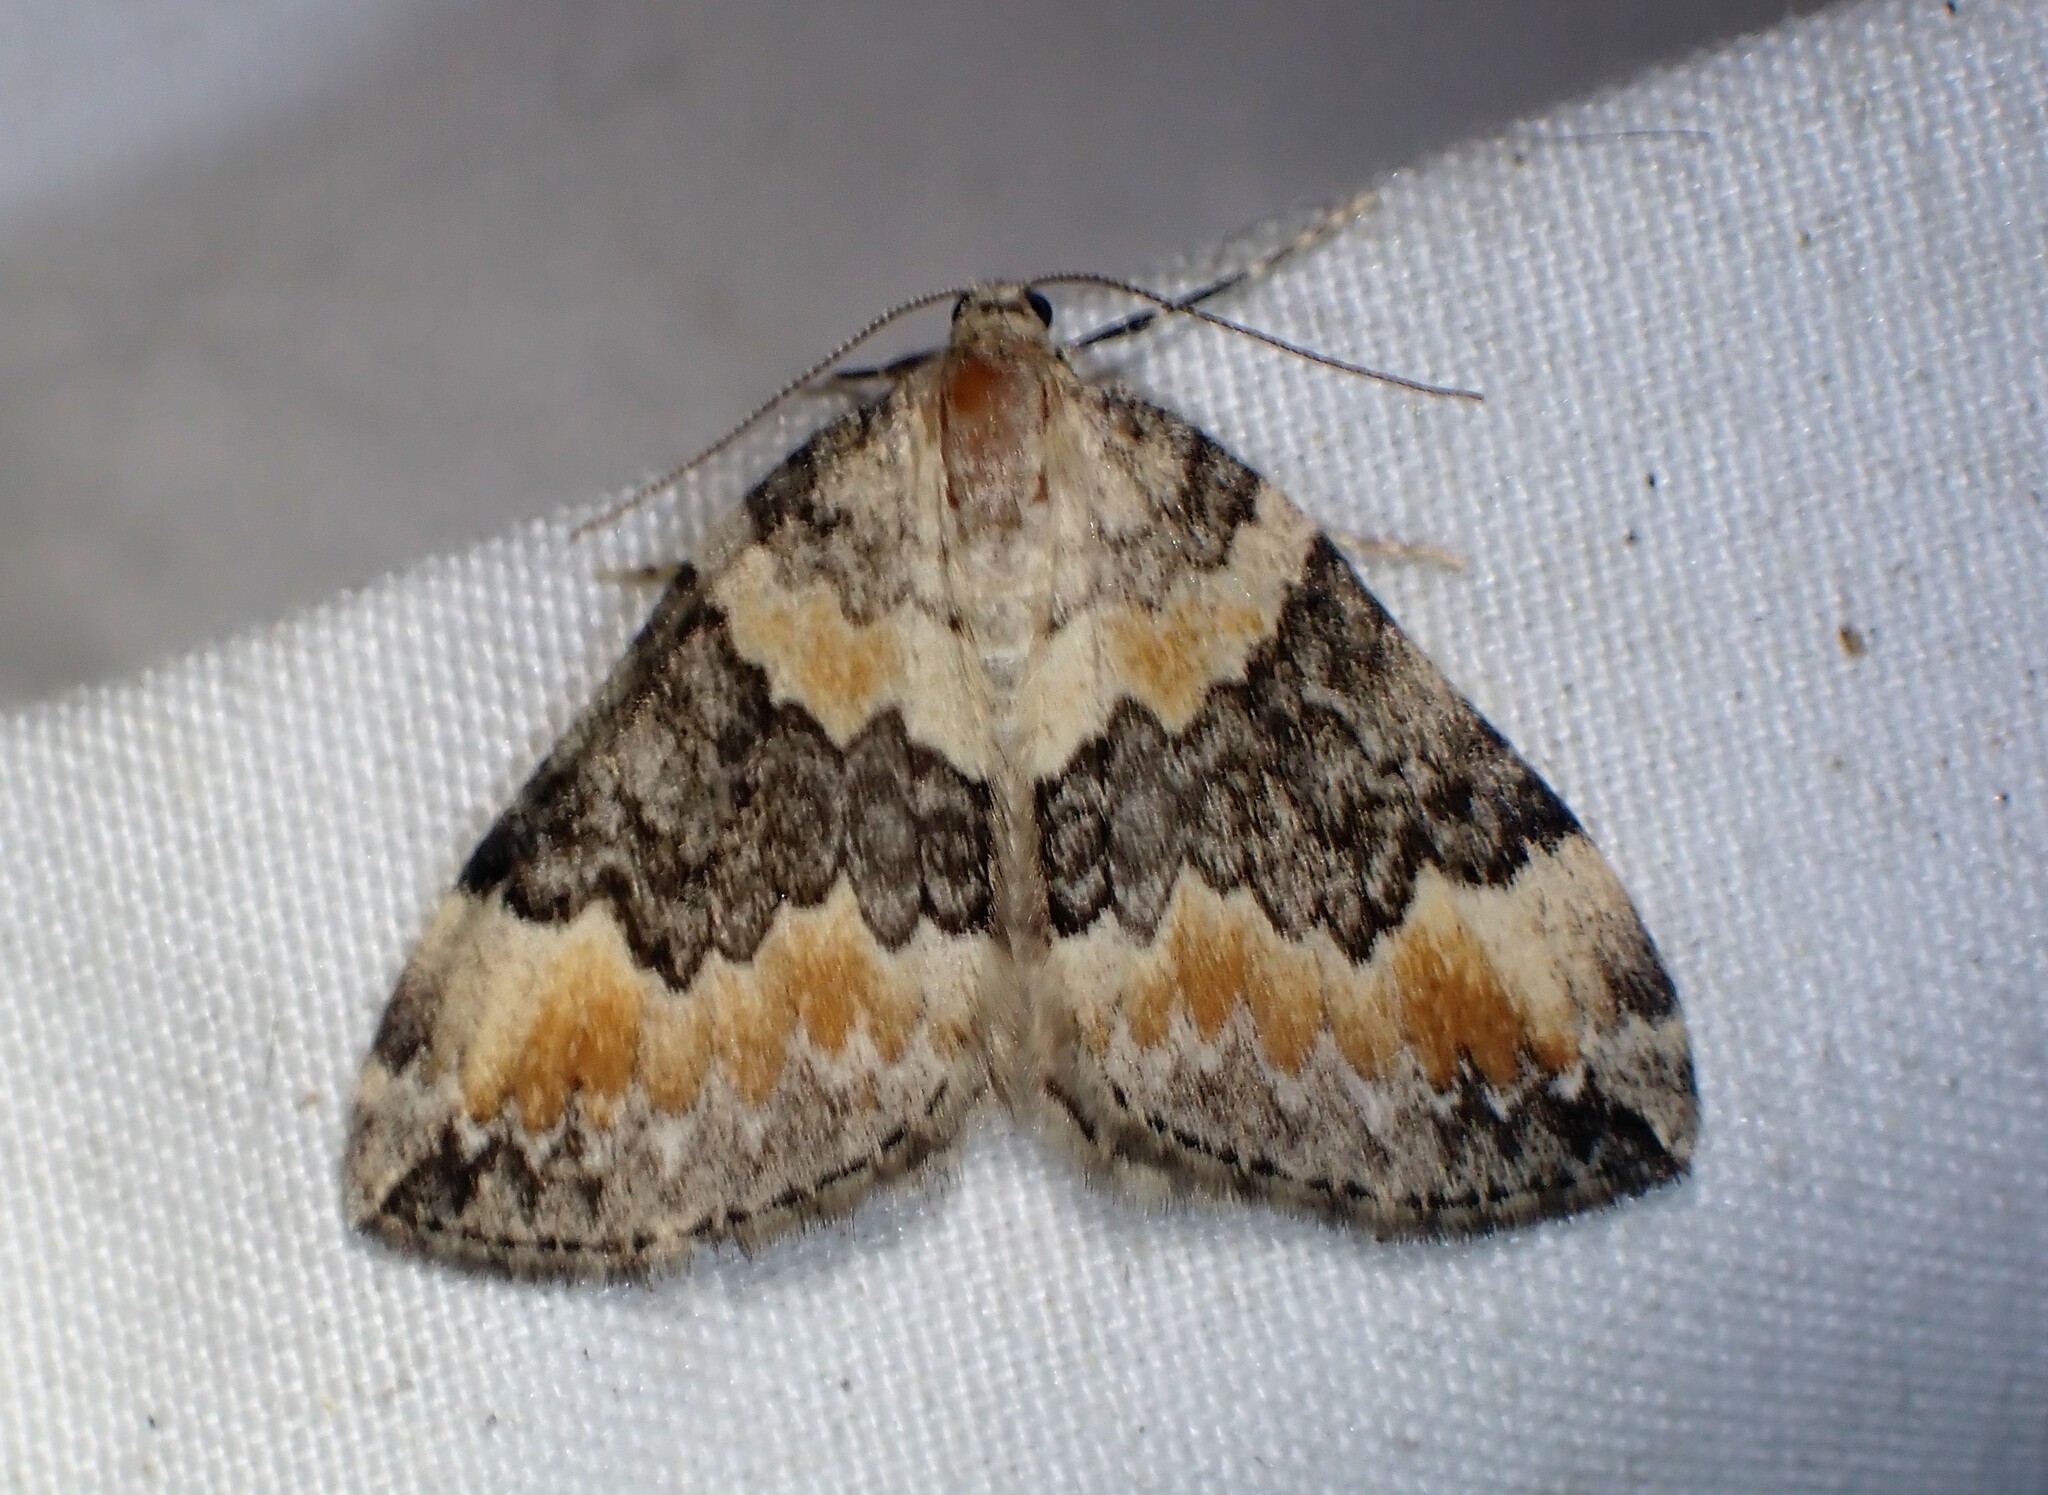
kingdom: Animalia
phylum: Arthropoda
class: Insecta
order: Lepidoptera
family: Geometridae
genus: Dysstroma
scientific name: Dysstroma brunneata
